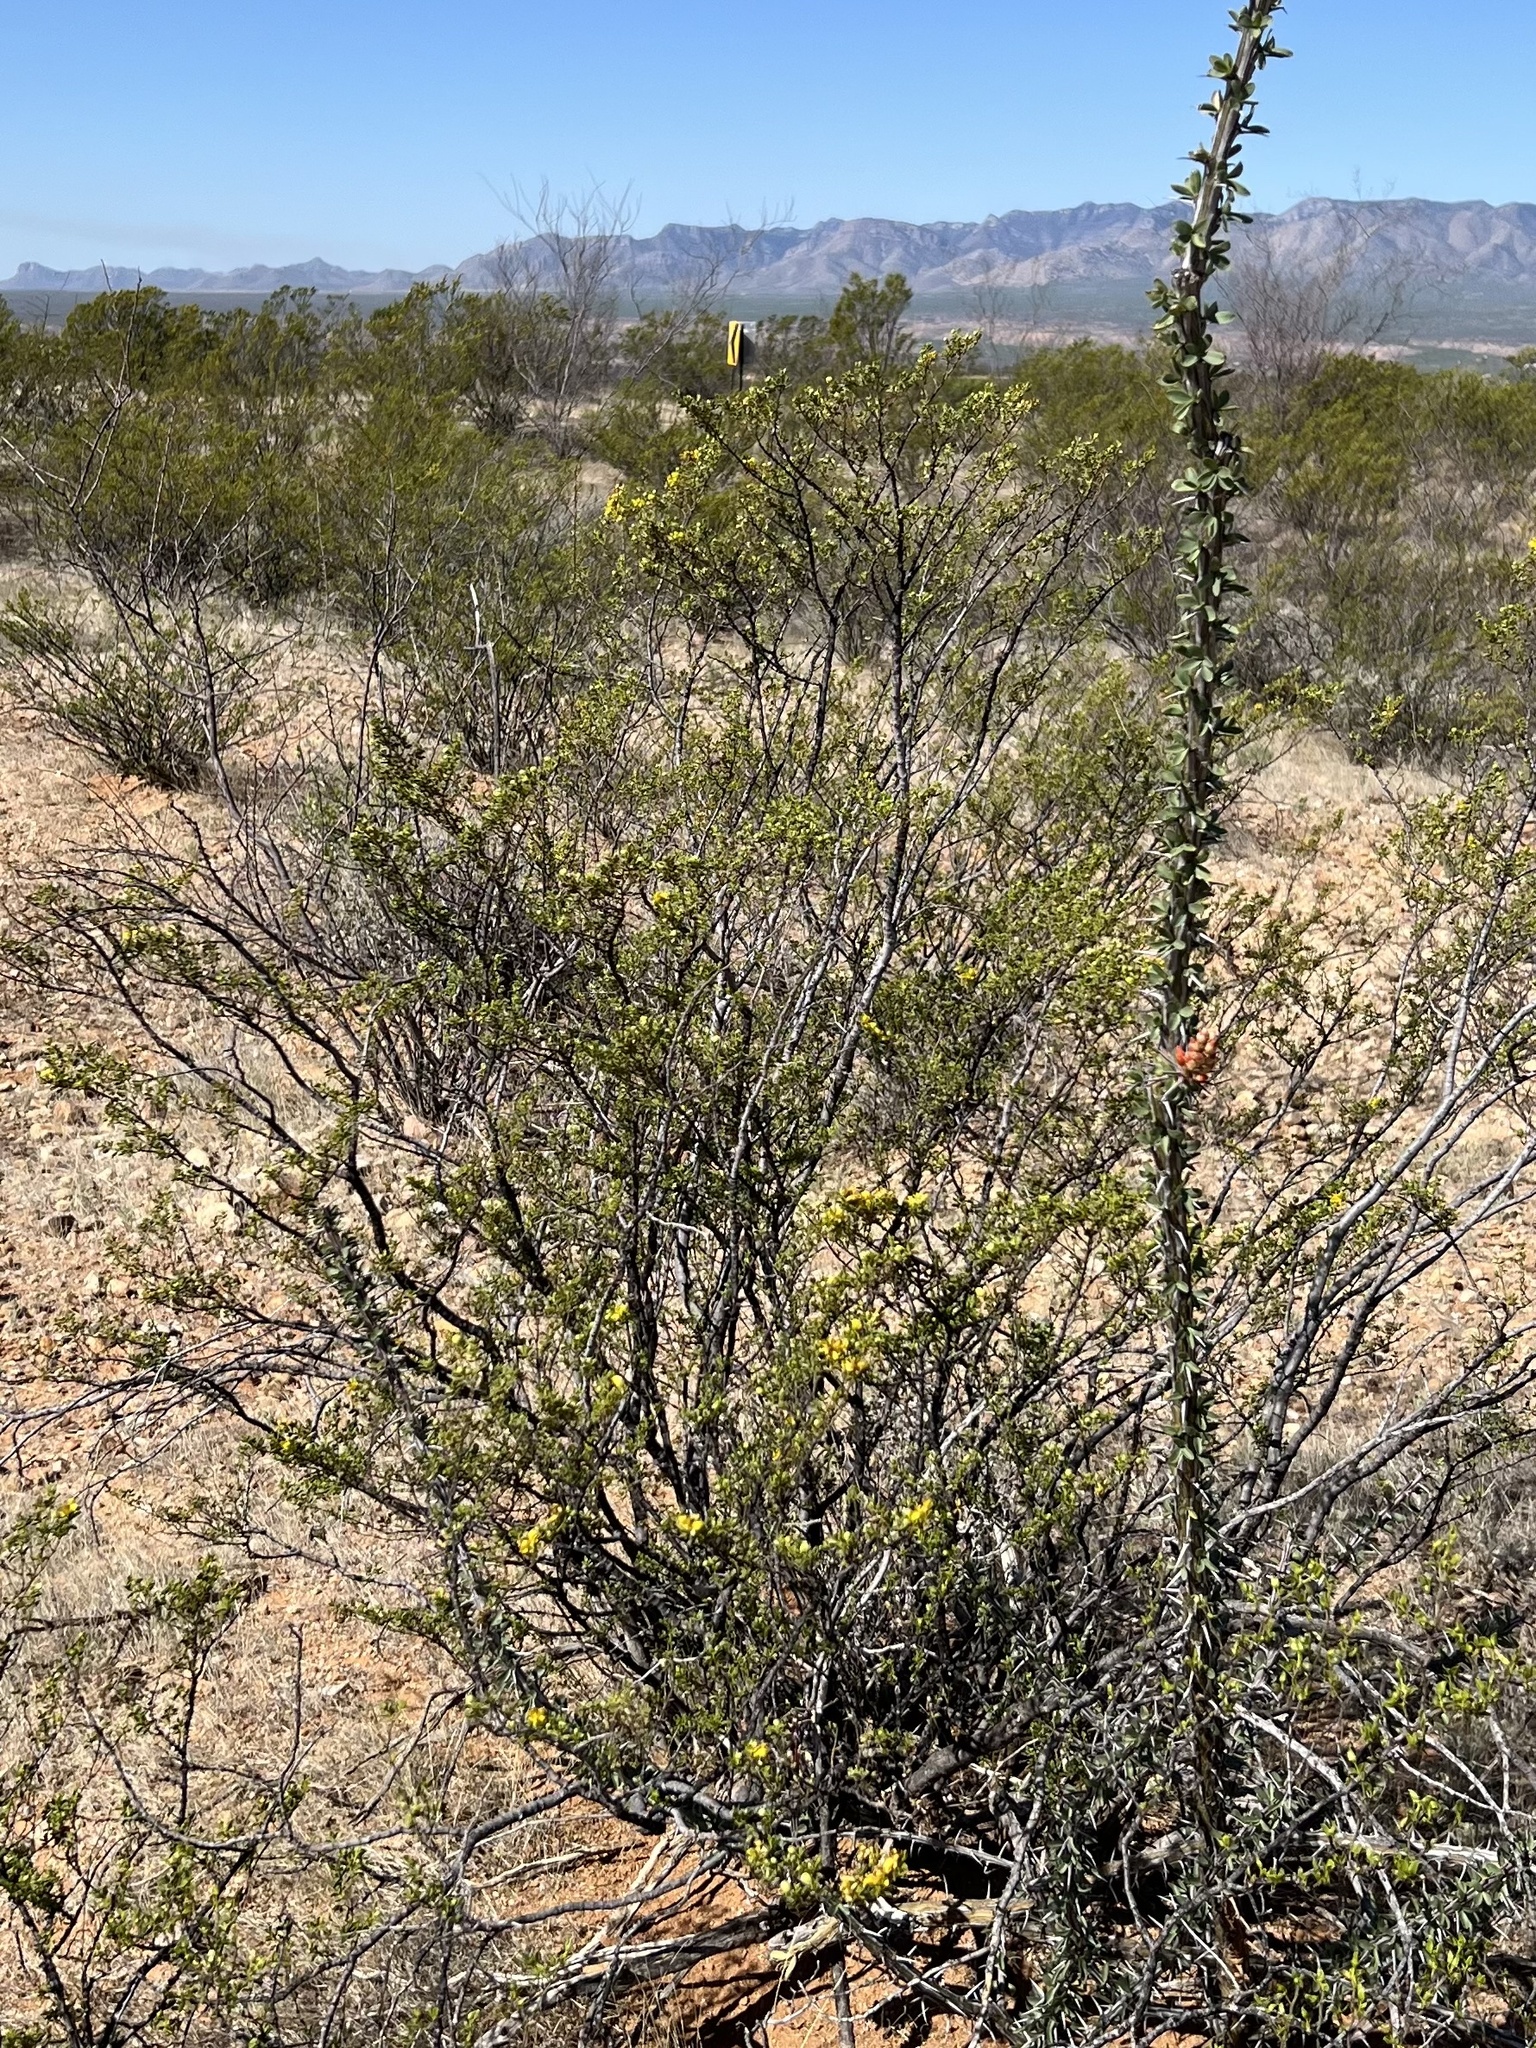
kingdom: Plantae
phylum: Tracheophyta
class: Magnoliopsida
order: Zygophyllales
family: Zygophyllaceae
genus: Larrea
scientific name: Larrea tridentata
